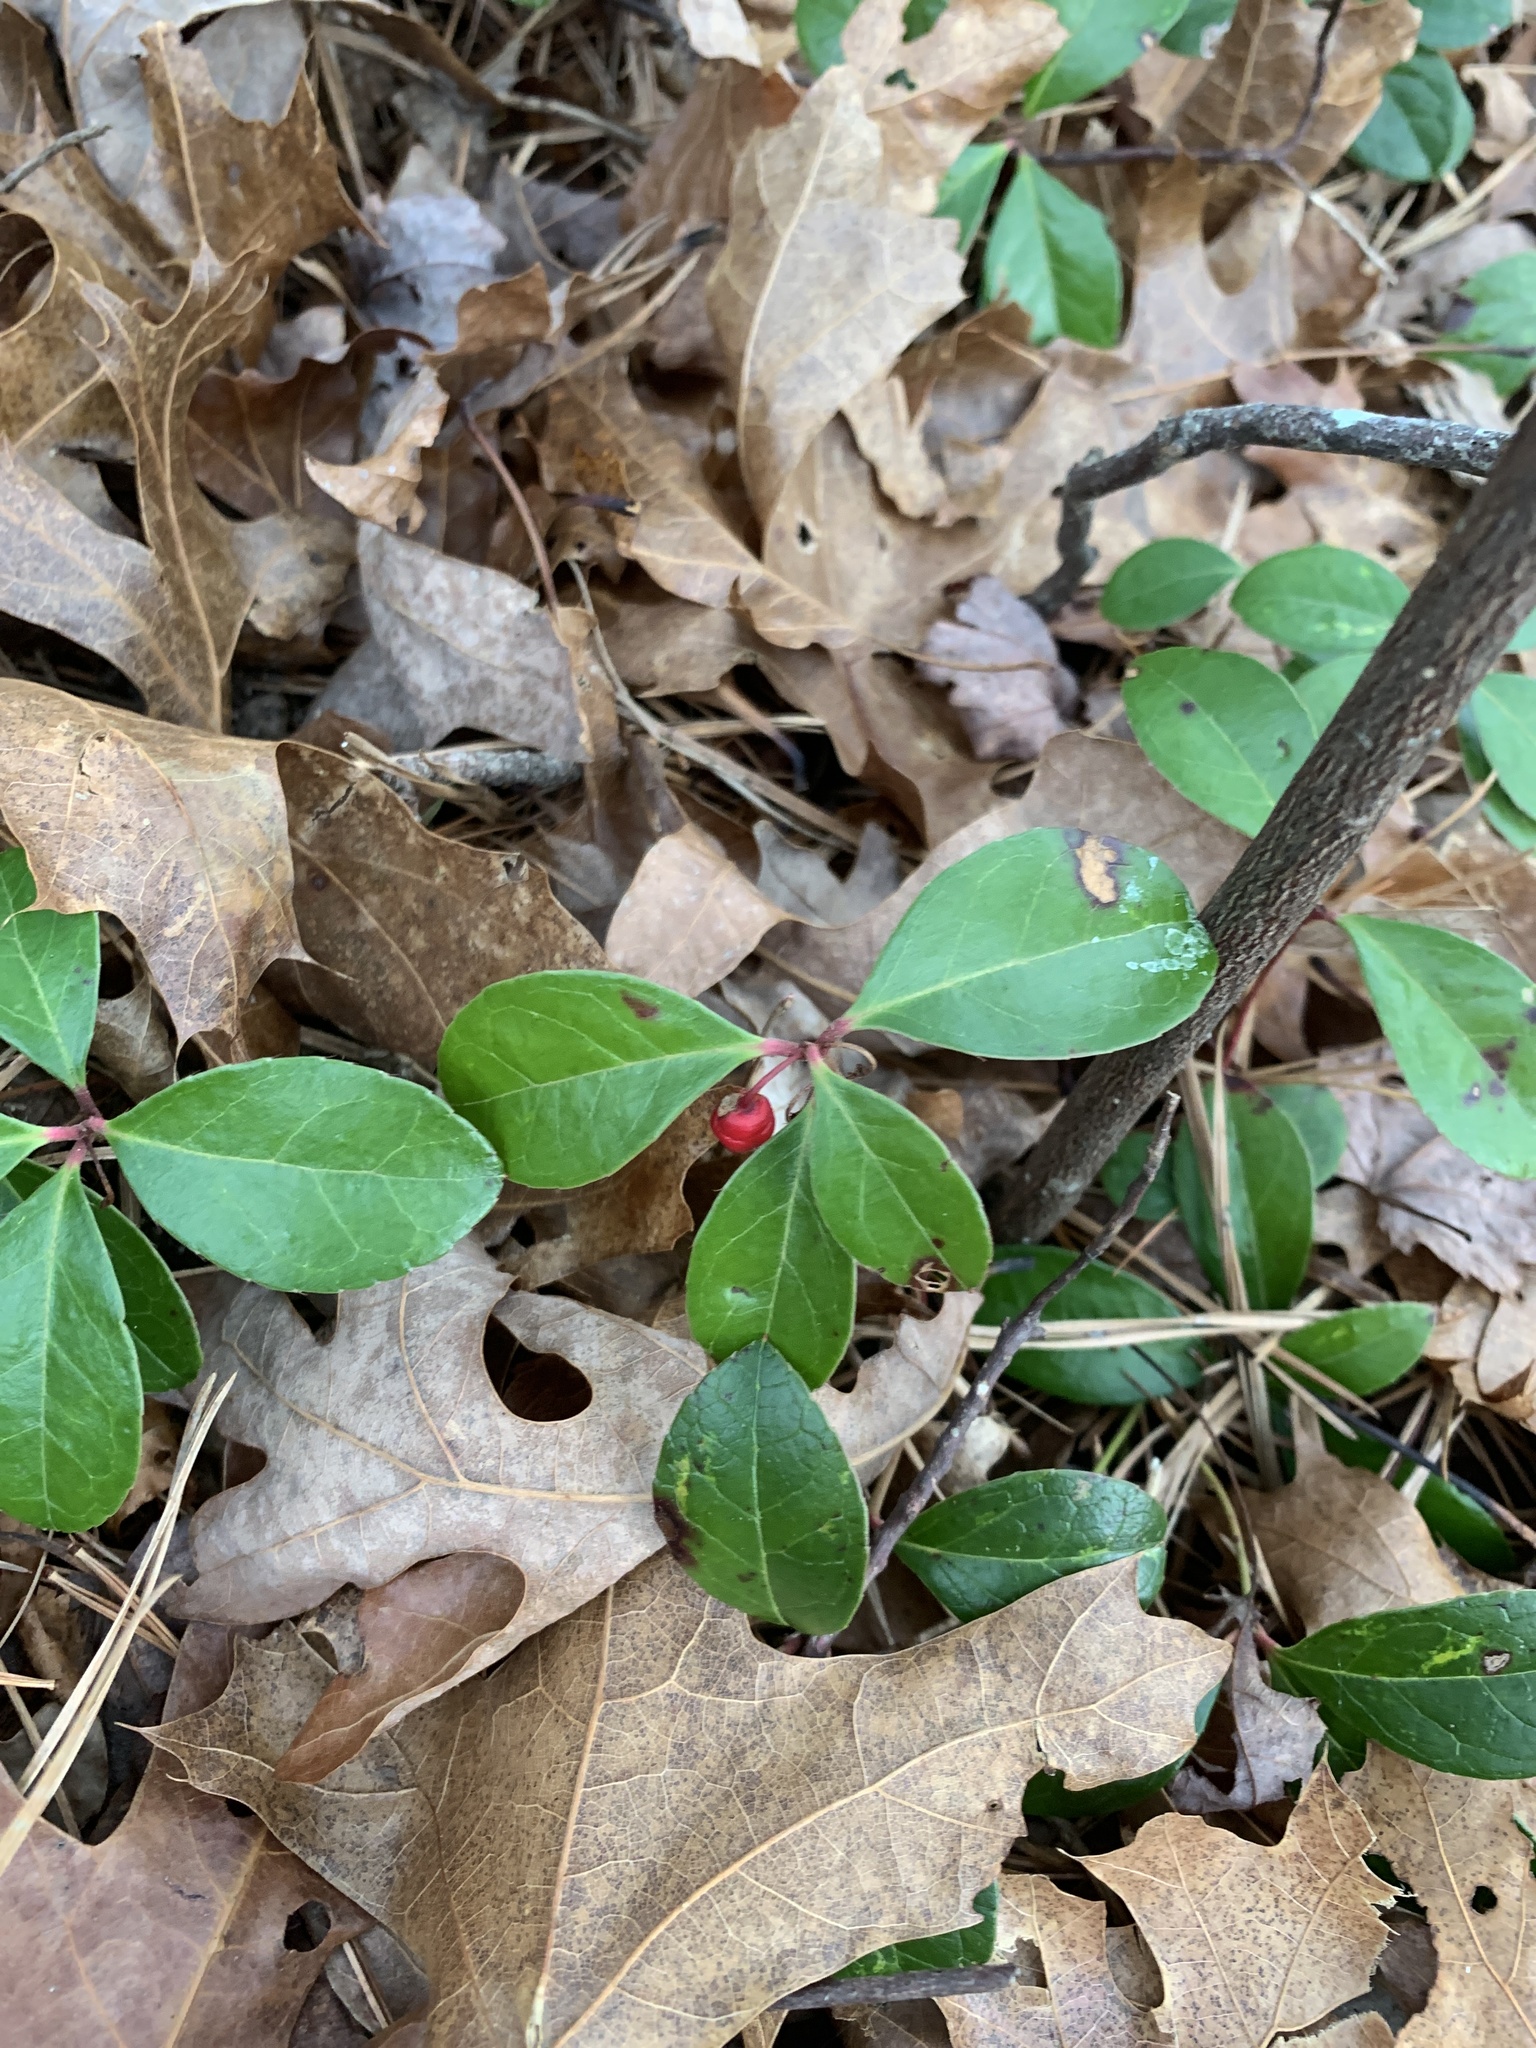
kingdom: Plantae
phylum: Tracheophyta
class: Magnoliopsida
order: Ericales
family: Ericaceae
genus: Gaultheria
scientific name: Gaultheria procumbens
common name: Checkerberry
